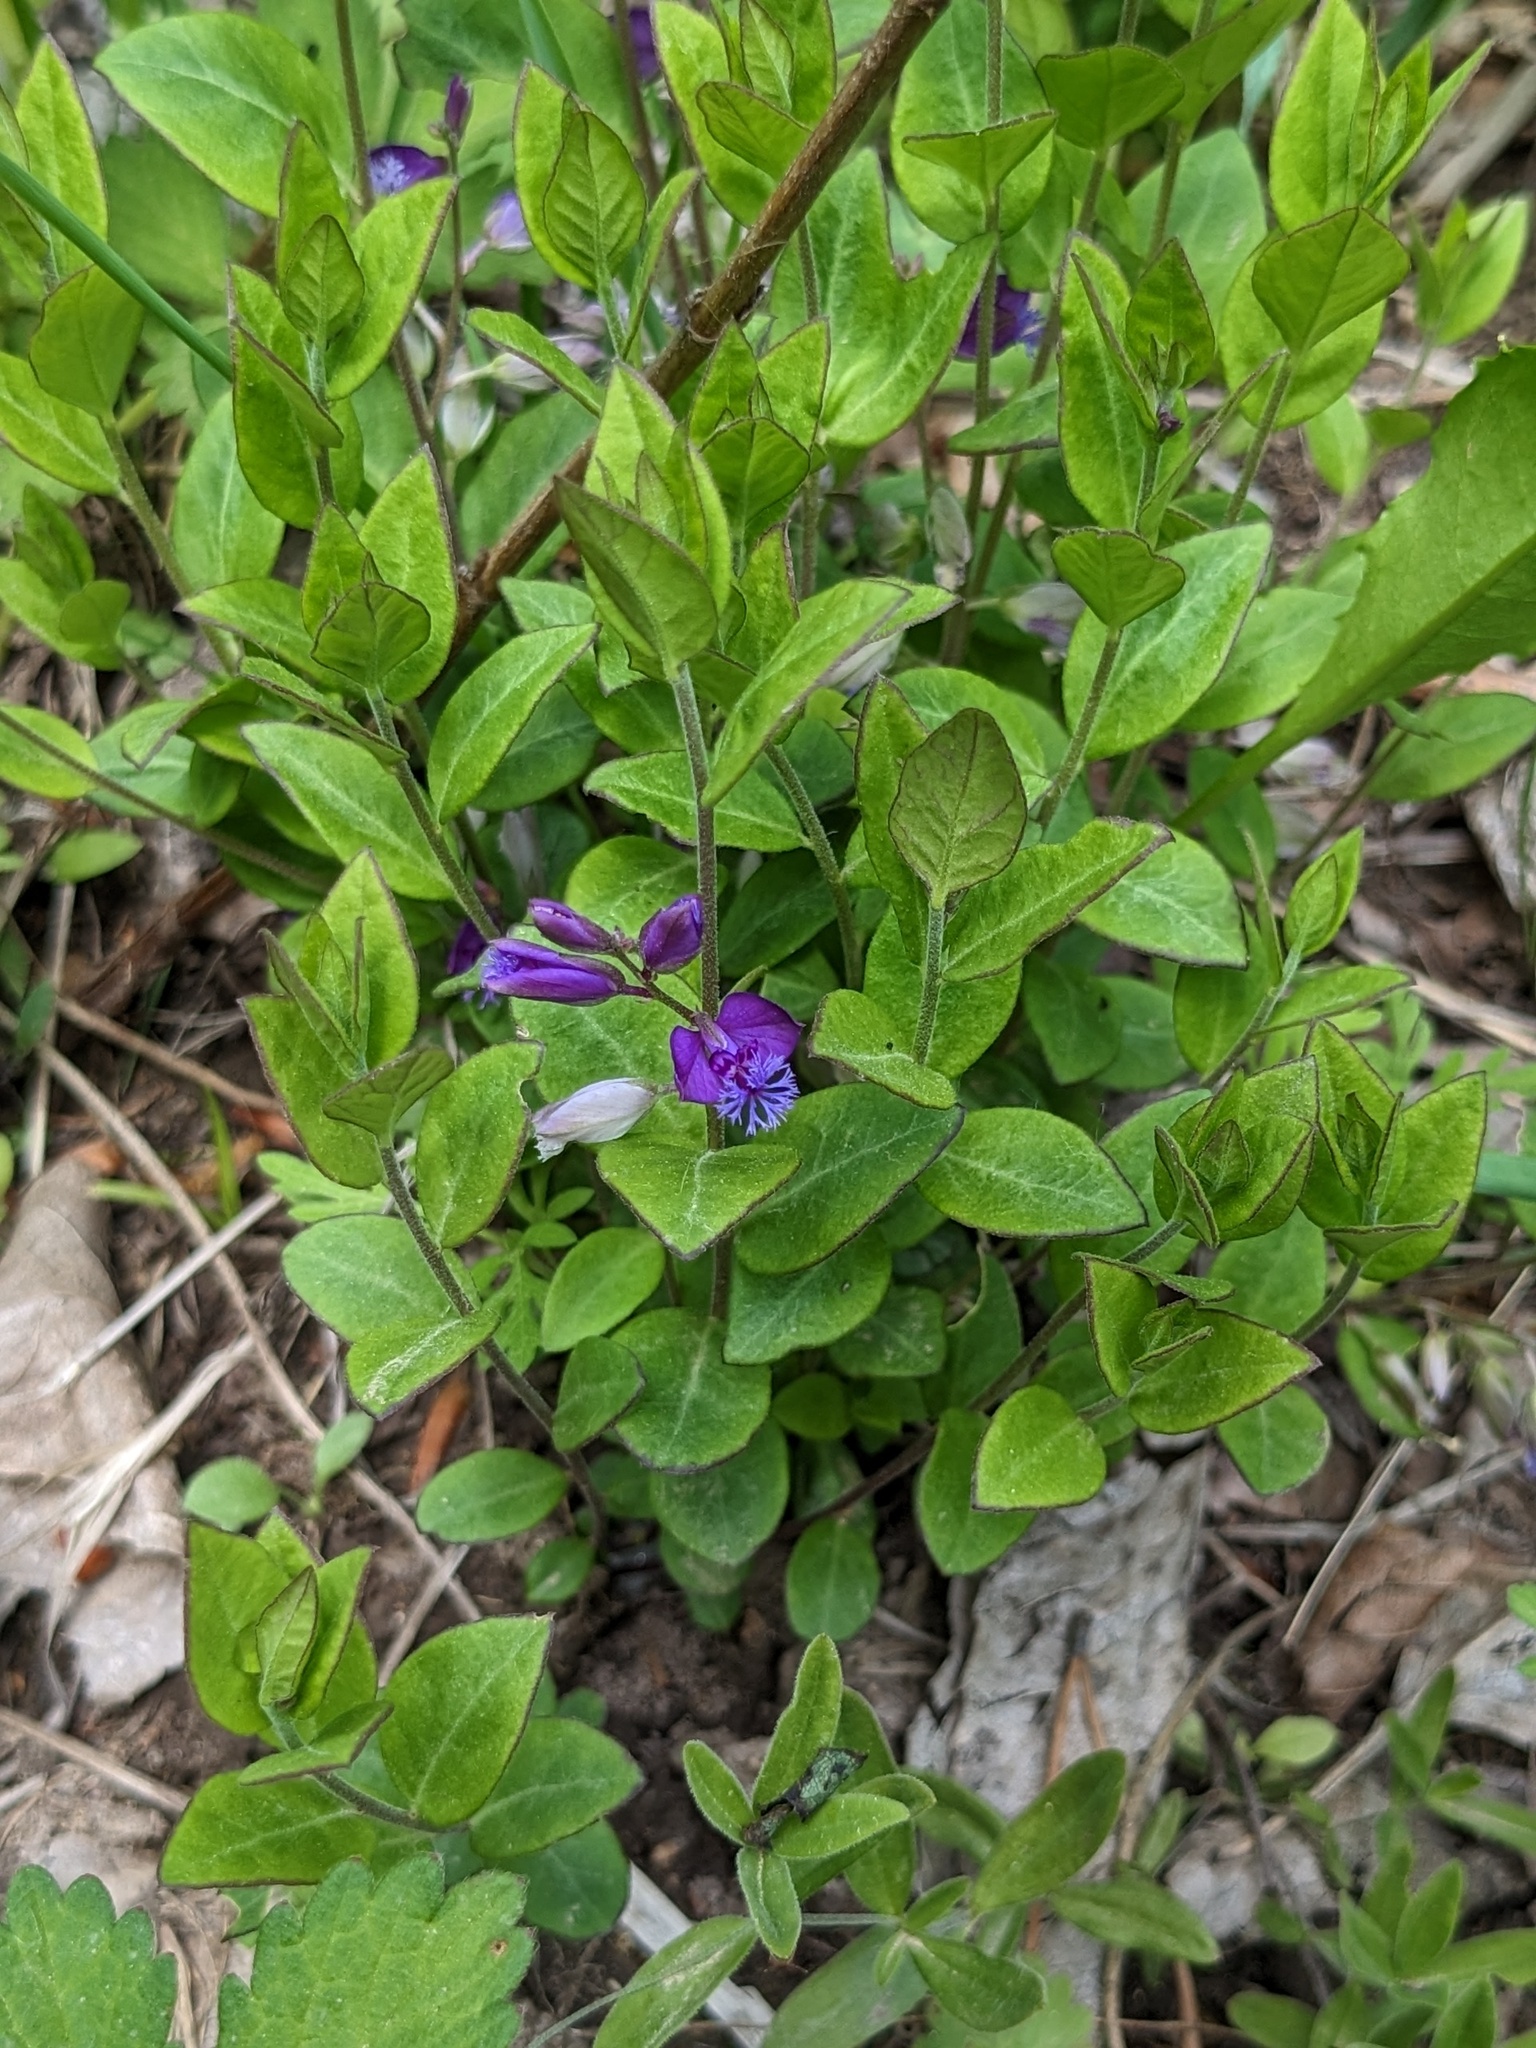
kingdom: Plantae
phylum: Tracheophyta
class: Magnoliopsida
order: Fabales
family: Polygalaceae
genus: Polygala
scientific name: Polygala japonica
